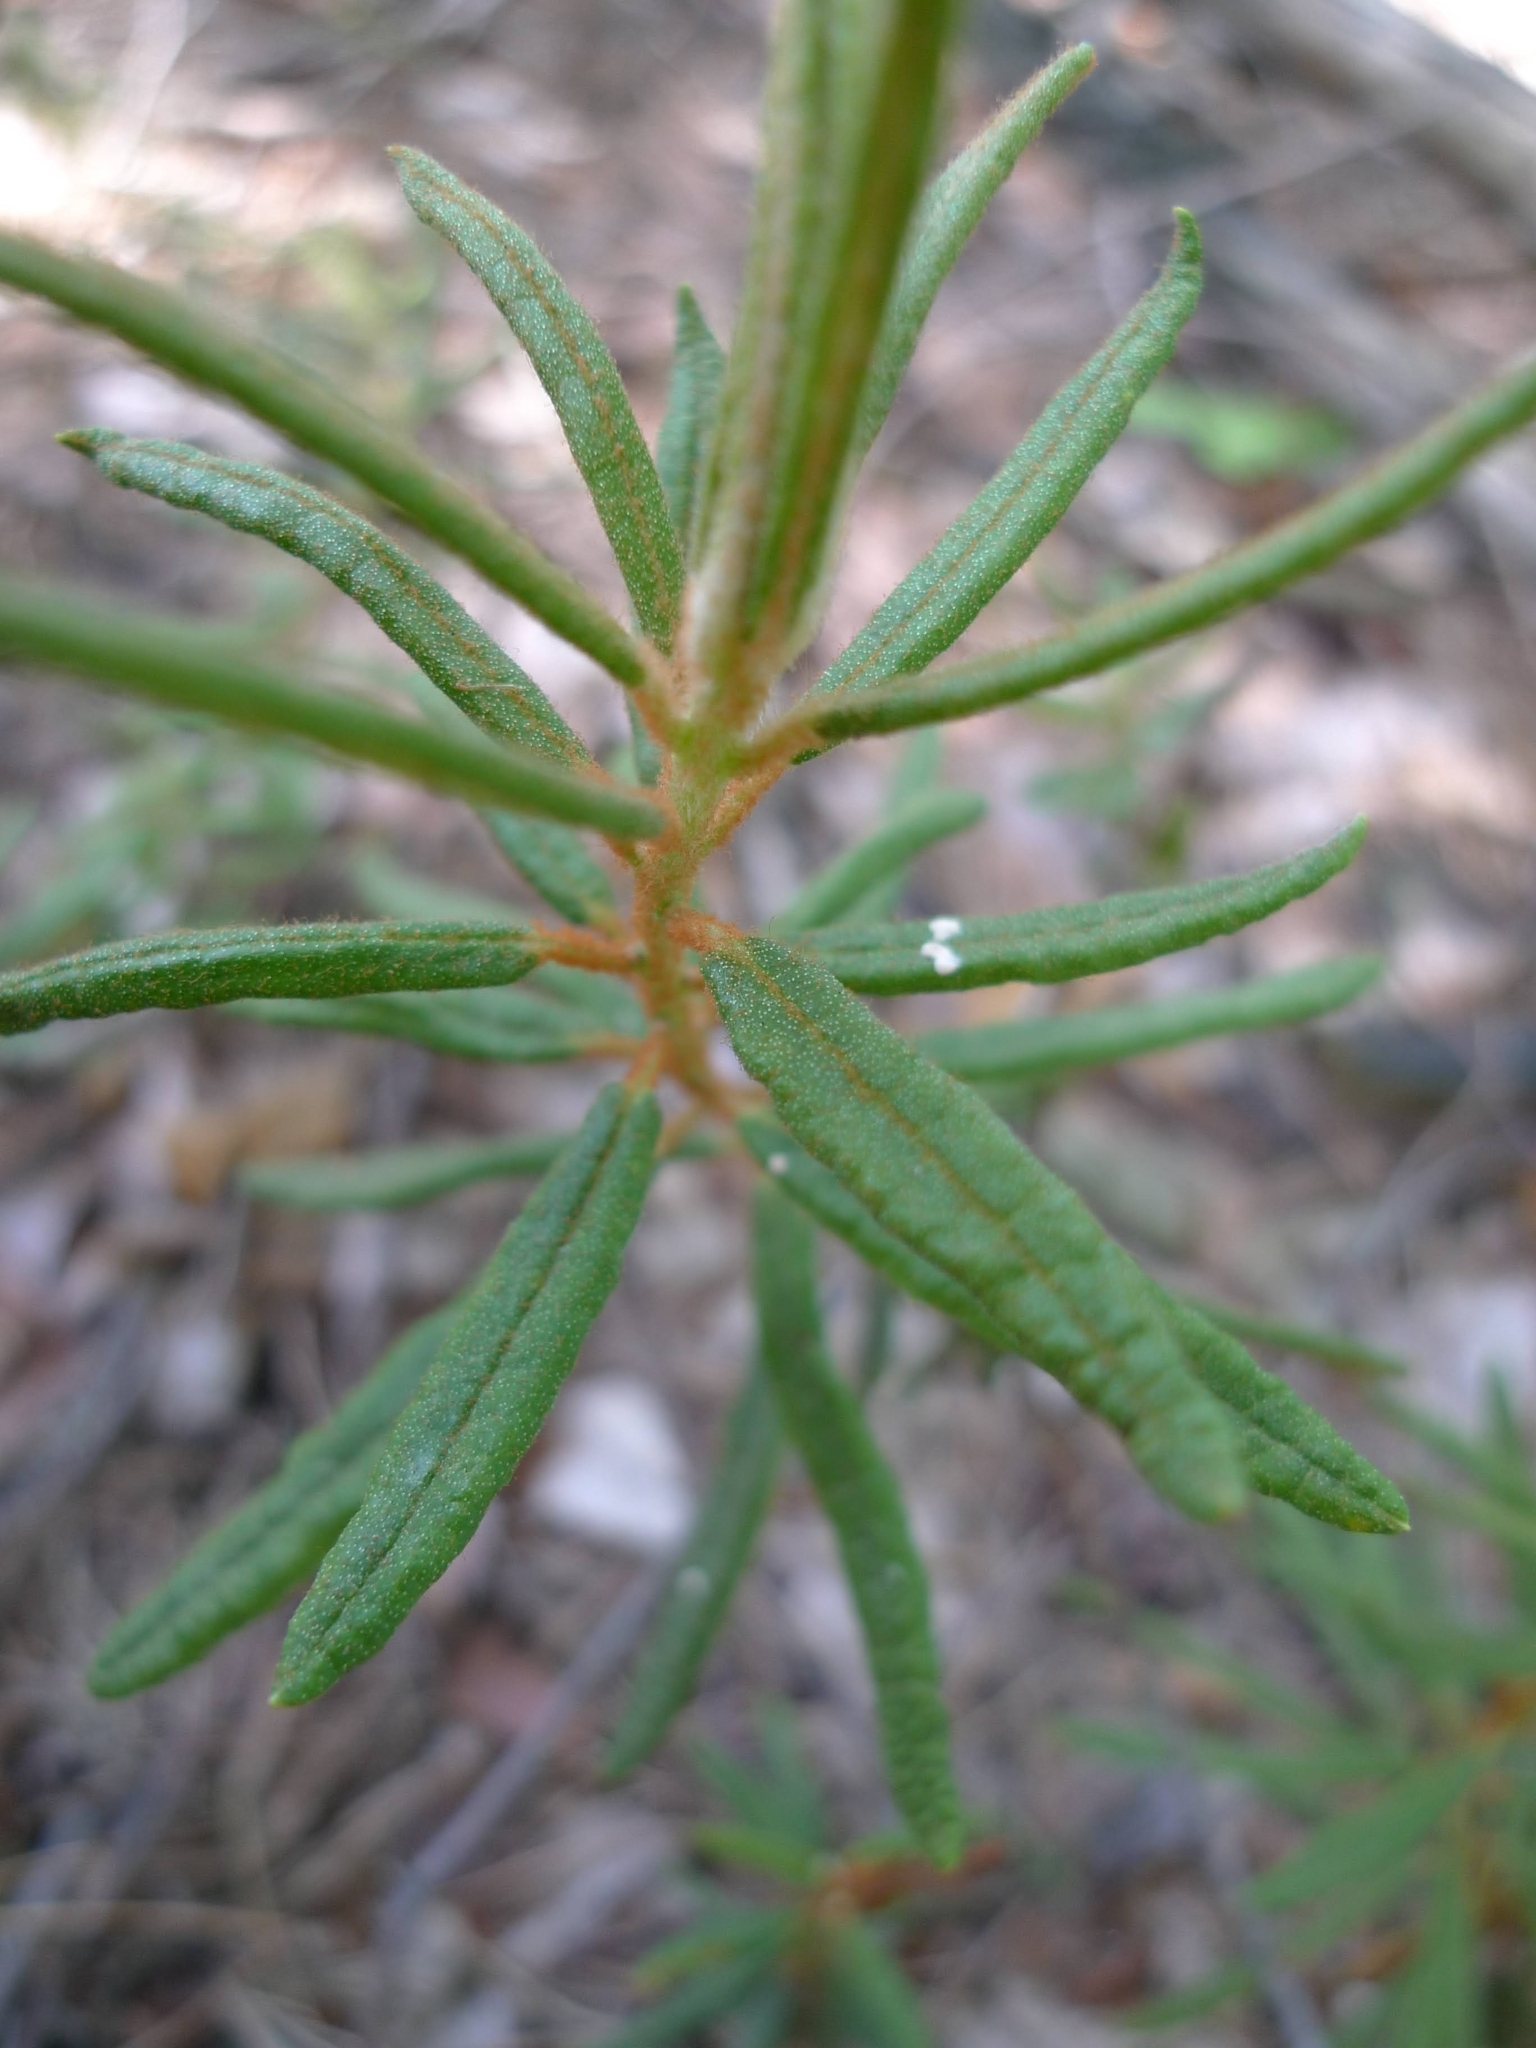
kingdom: Plantae
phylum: Tracheophyta
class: Magnoliopsida
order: Ericales
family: Ericaceae
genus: Rhododendron
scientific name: Rhododendron tomentosum
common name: Marsh labrador tea
